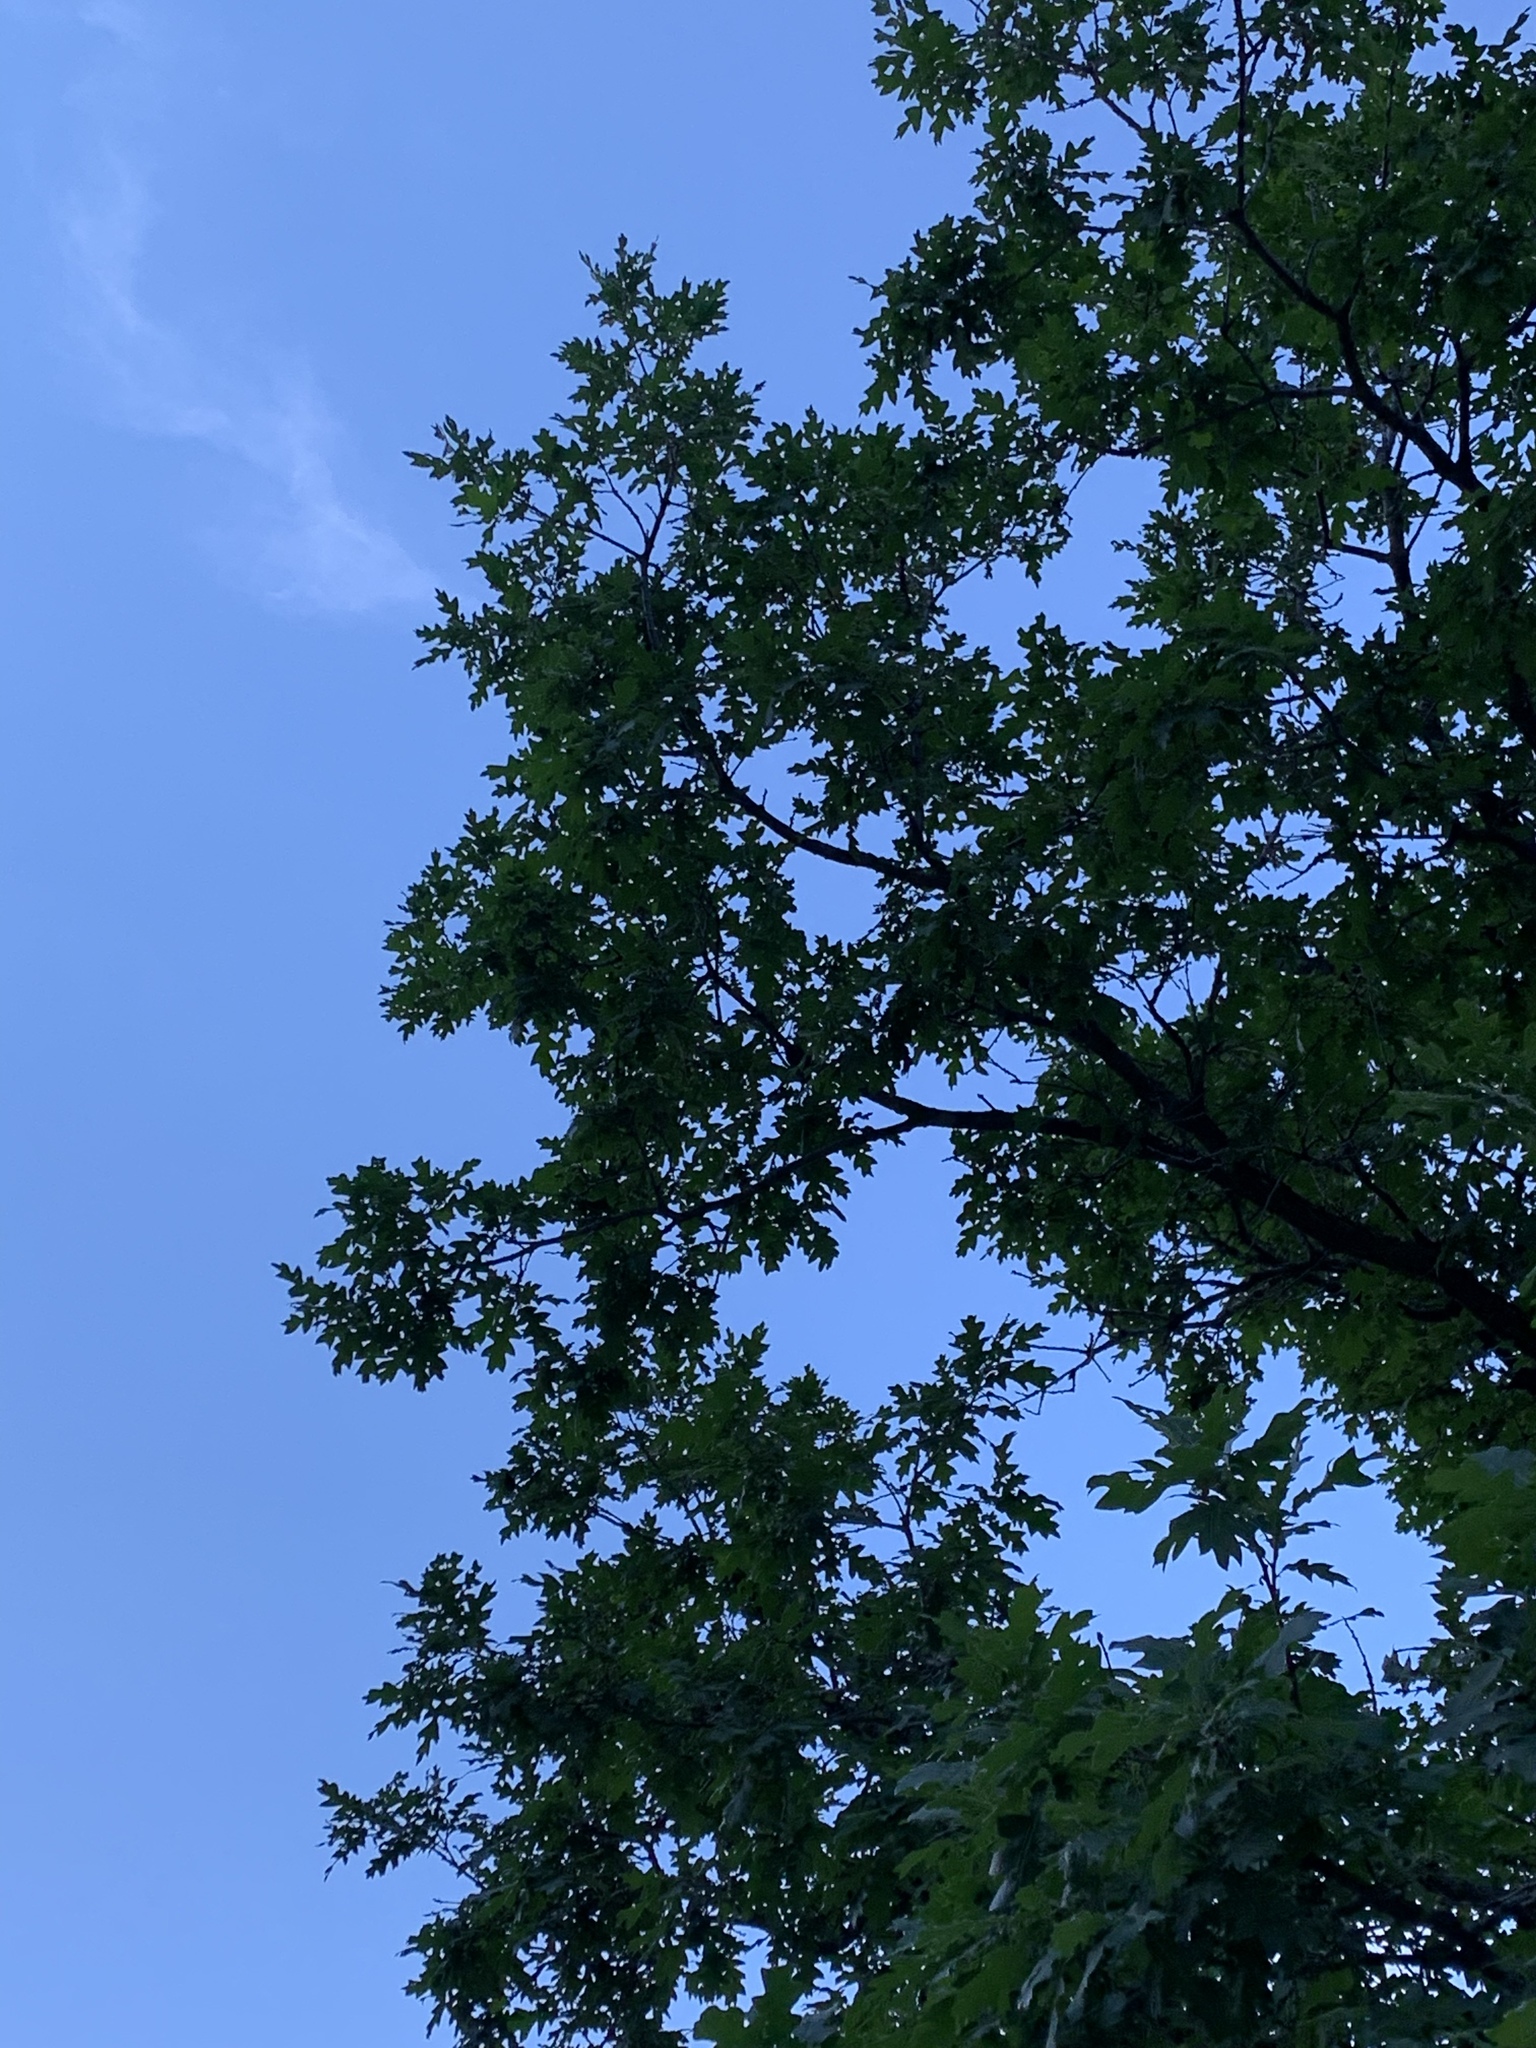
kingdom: Plantae
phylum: Tracheophyta
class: Magnoliopsida
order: Fagales
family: Fagaceae
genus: Quercus
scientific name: Quercus gambelii
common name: Gambel oak
